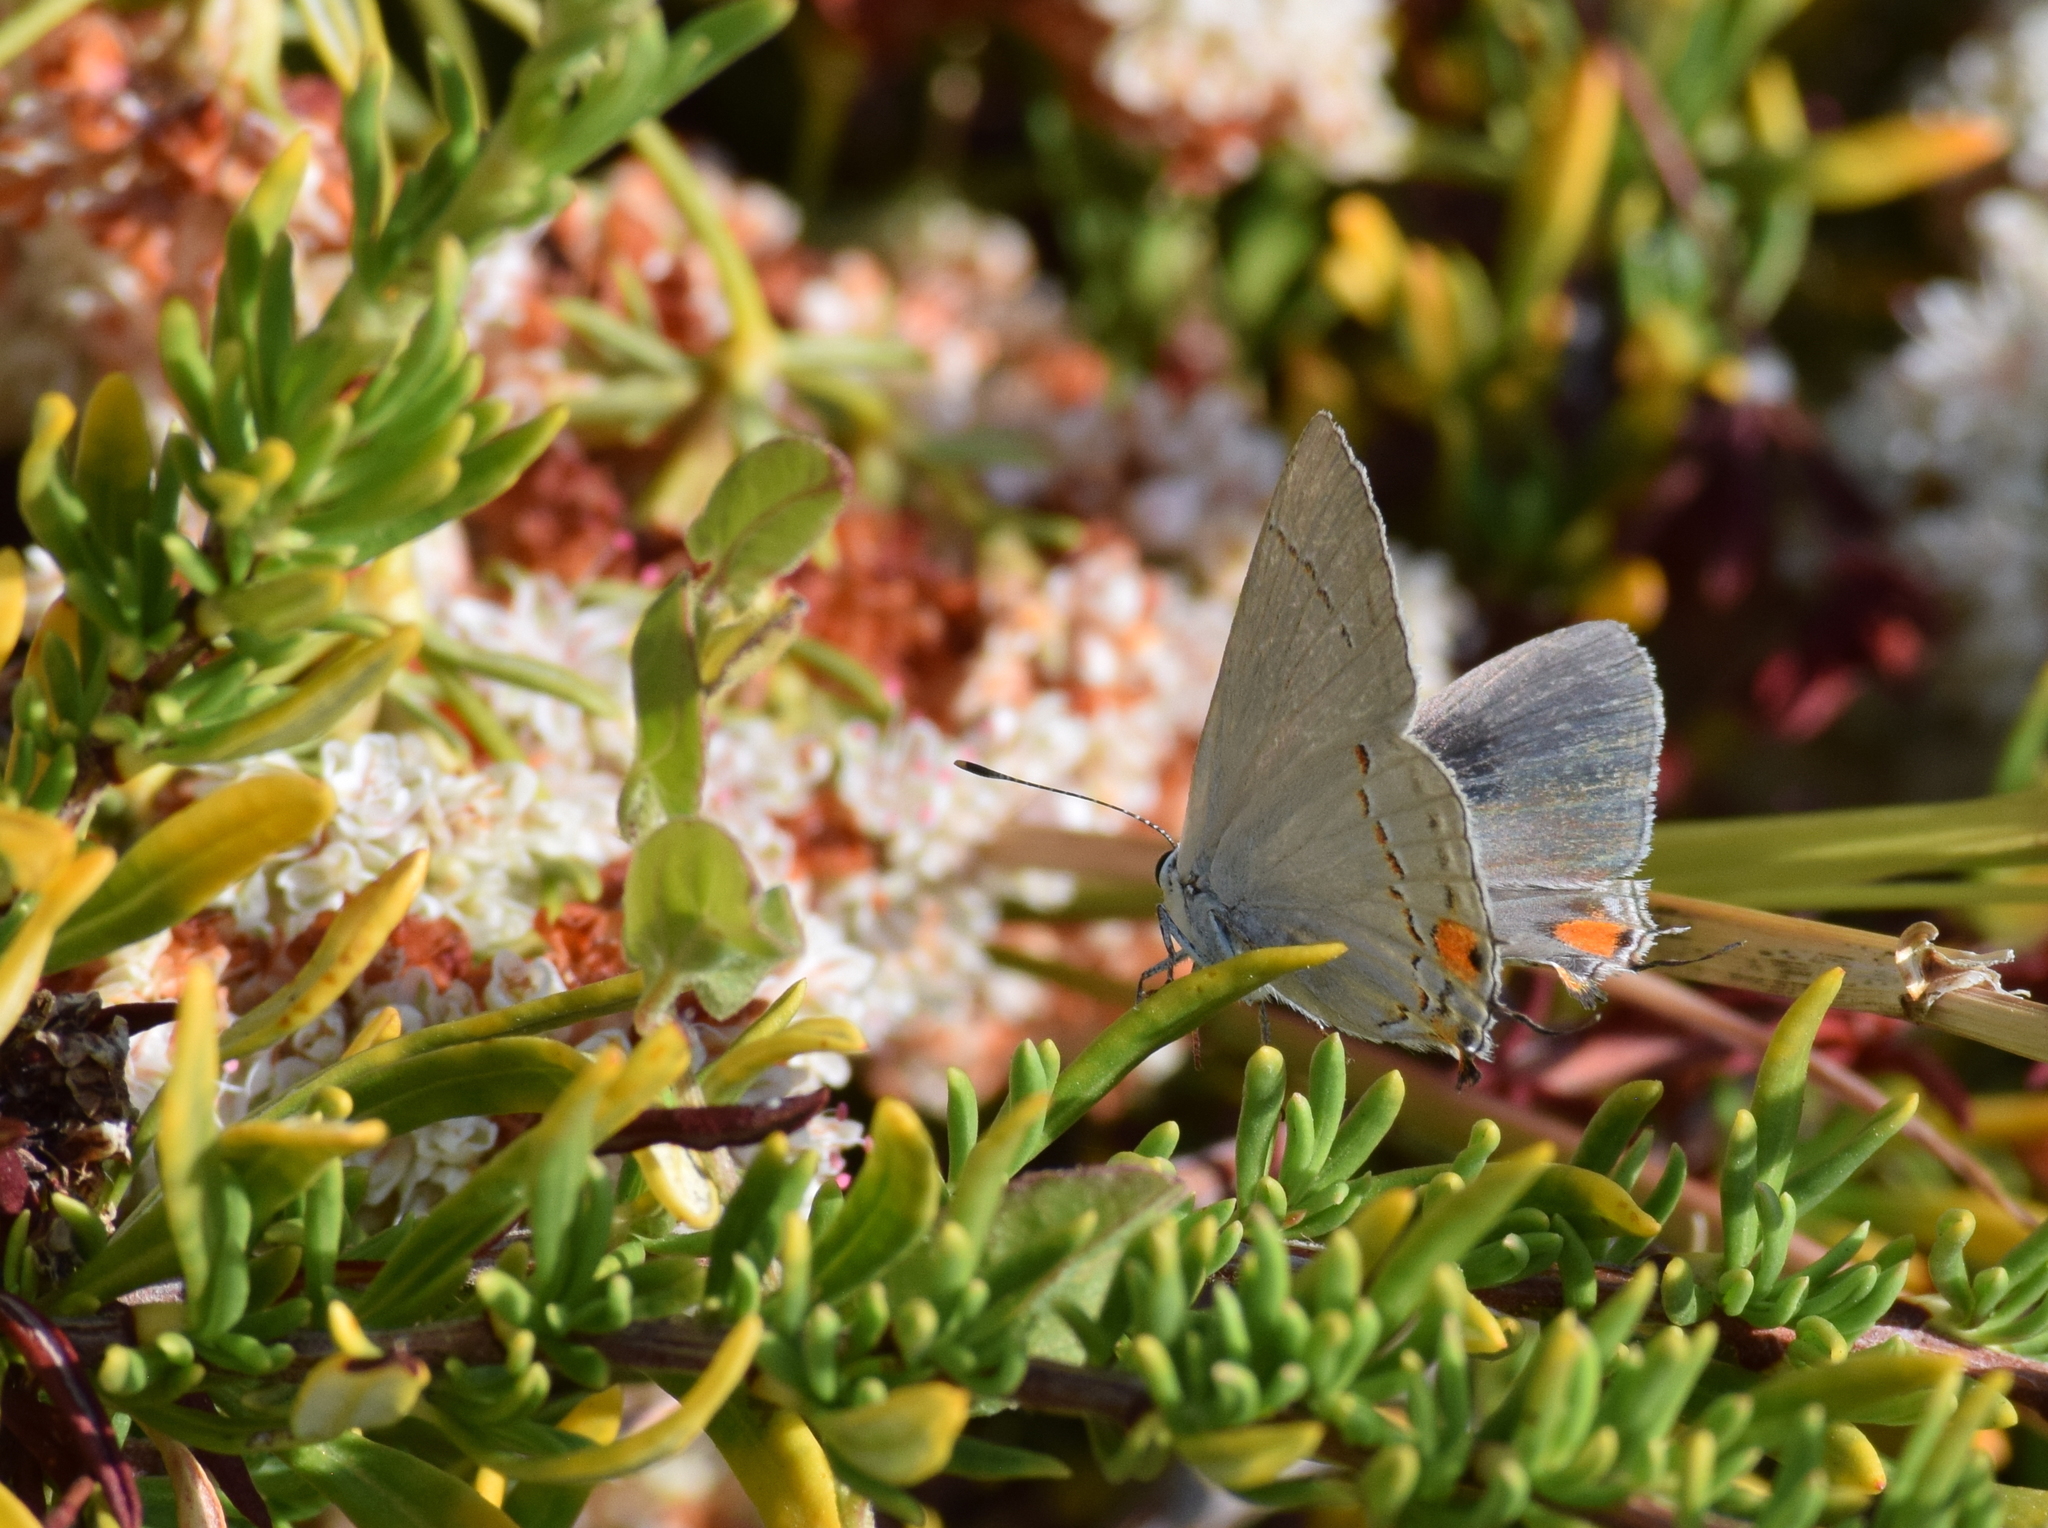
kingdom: Animalia
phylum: Arthropoda
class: Insecta
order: Lepidoptera
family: Lycaenidae
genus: Strymon
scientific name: Strymon melinus
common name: Gray hairstreak
